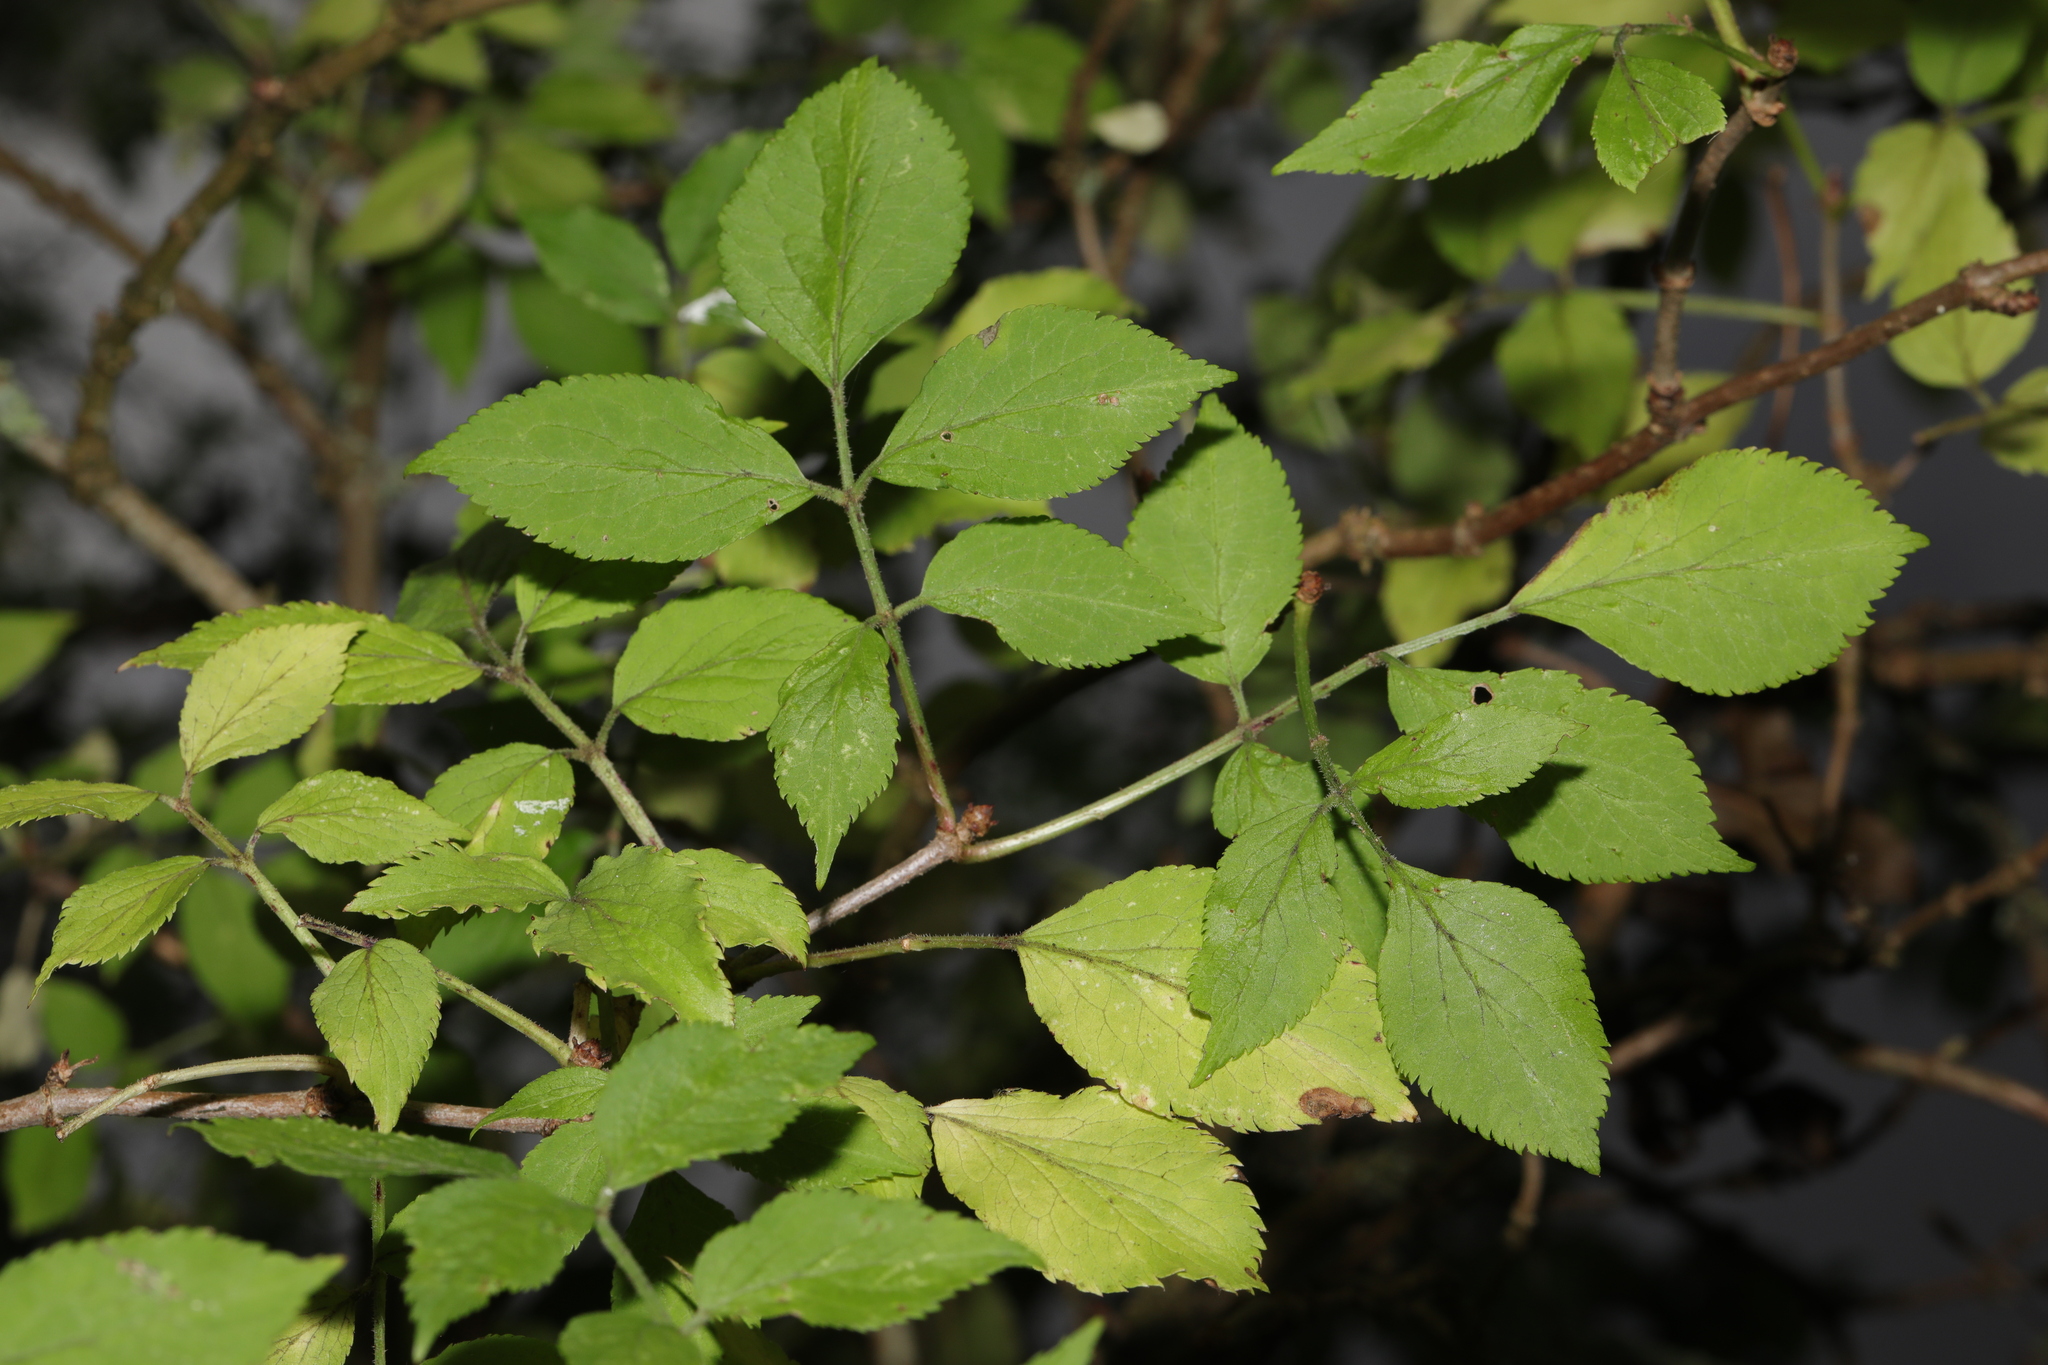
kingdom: Plantae
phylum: Tracheophyta
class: Magnoliopsida
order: Dipsacales
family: Viburnaceae
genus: Sambucus
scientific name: Sambucus nigra
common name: Elder
